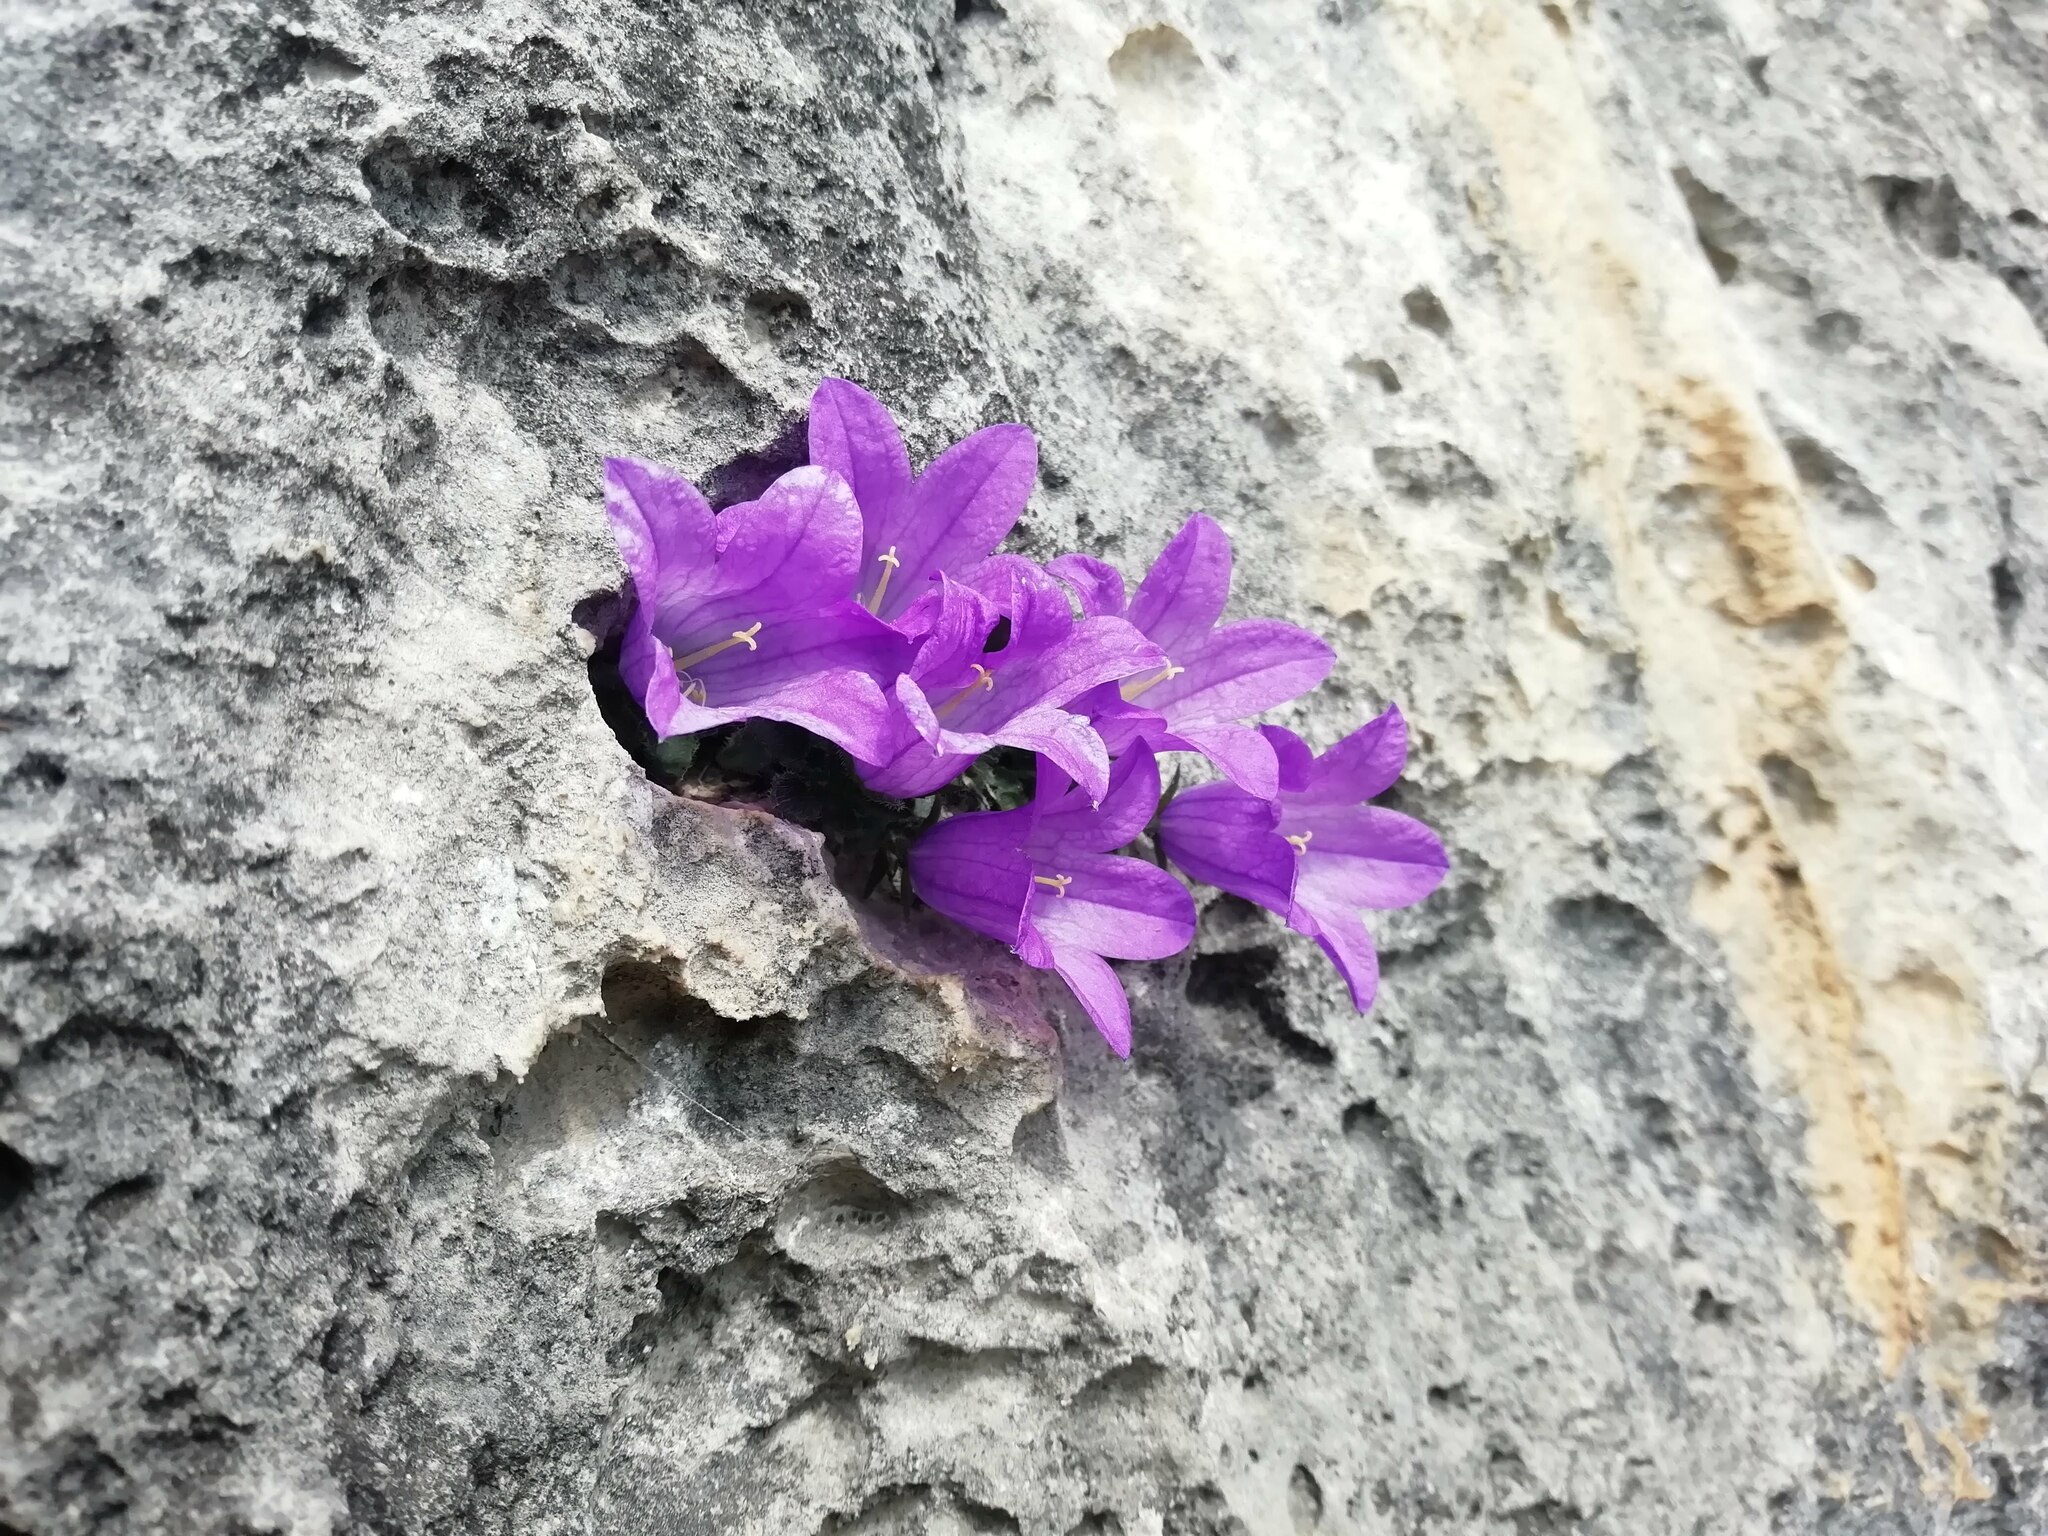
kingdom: Plantae
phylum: Tracheophyta
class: Magnoliopsida
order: Asterales
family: Campanulaceae
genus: Campanula
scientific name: Campanula morettiana
